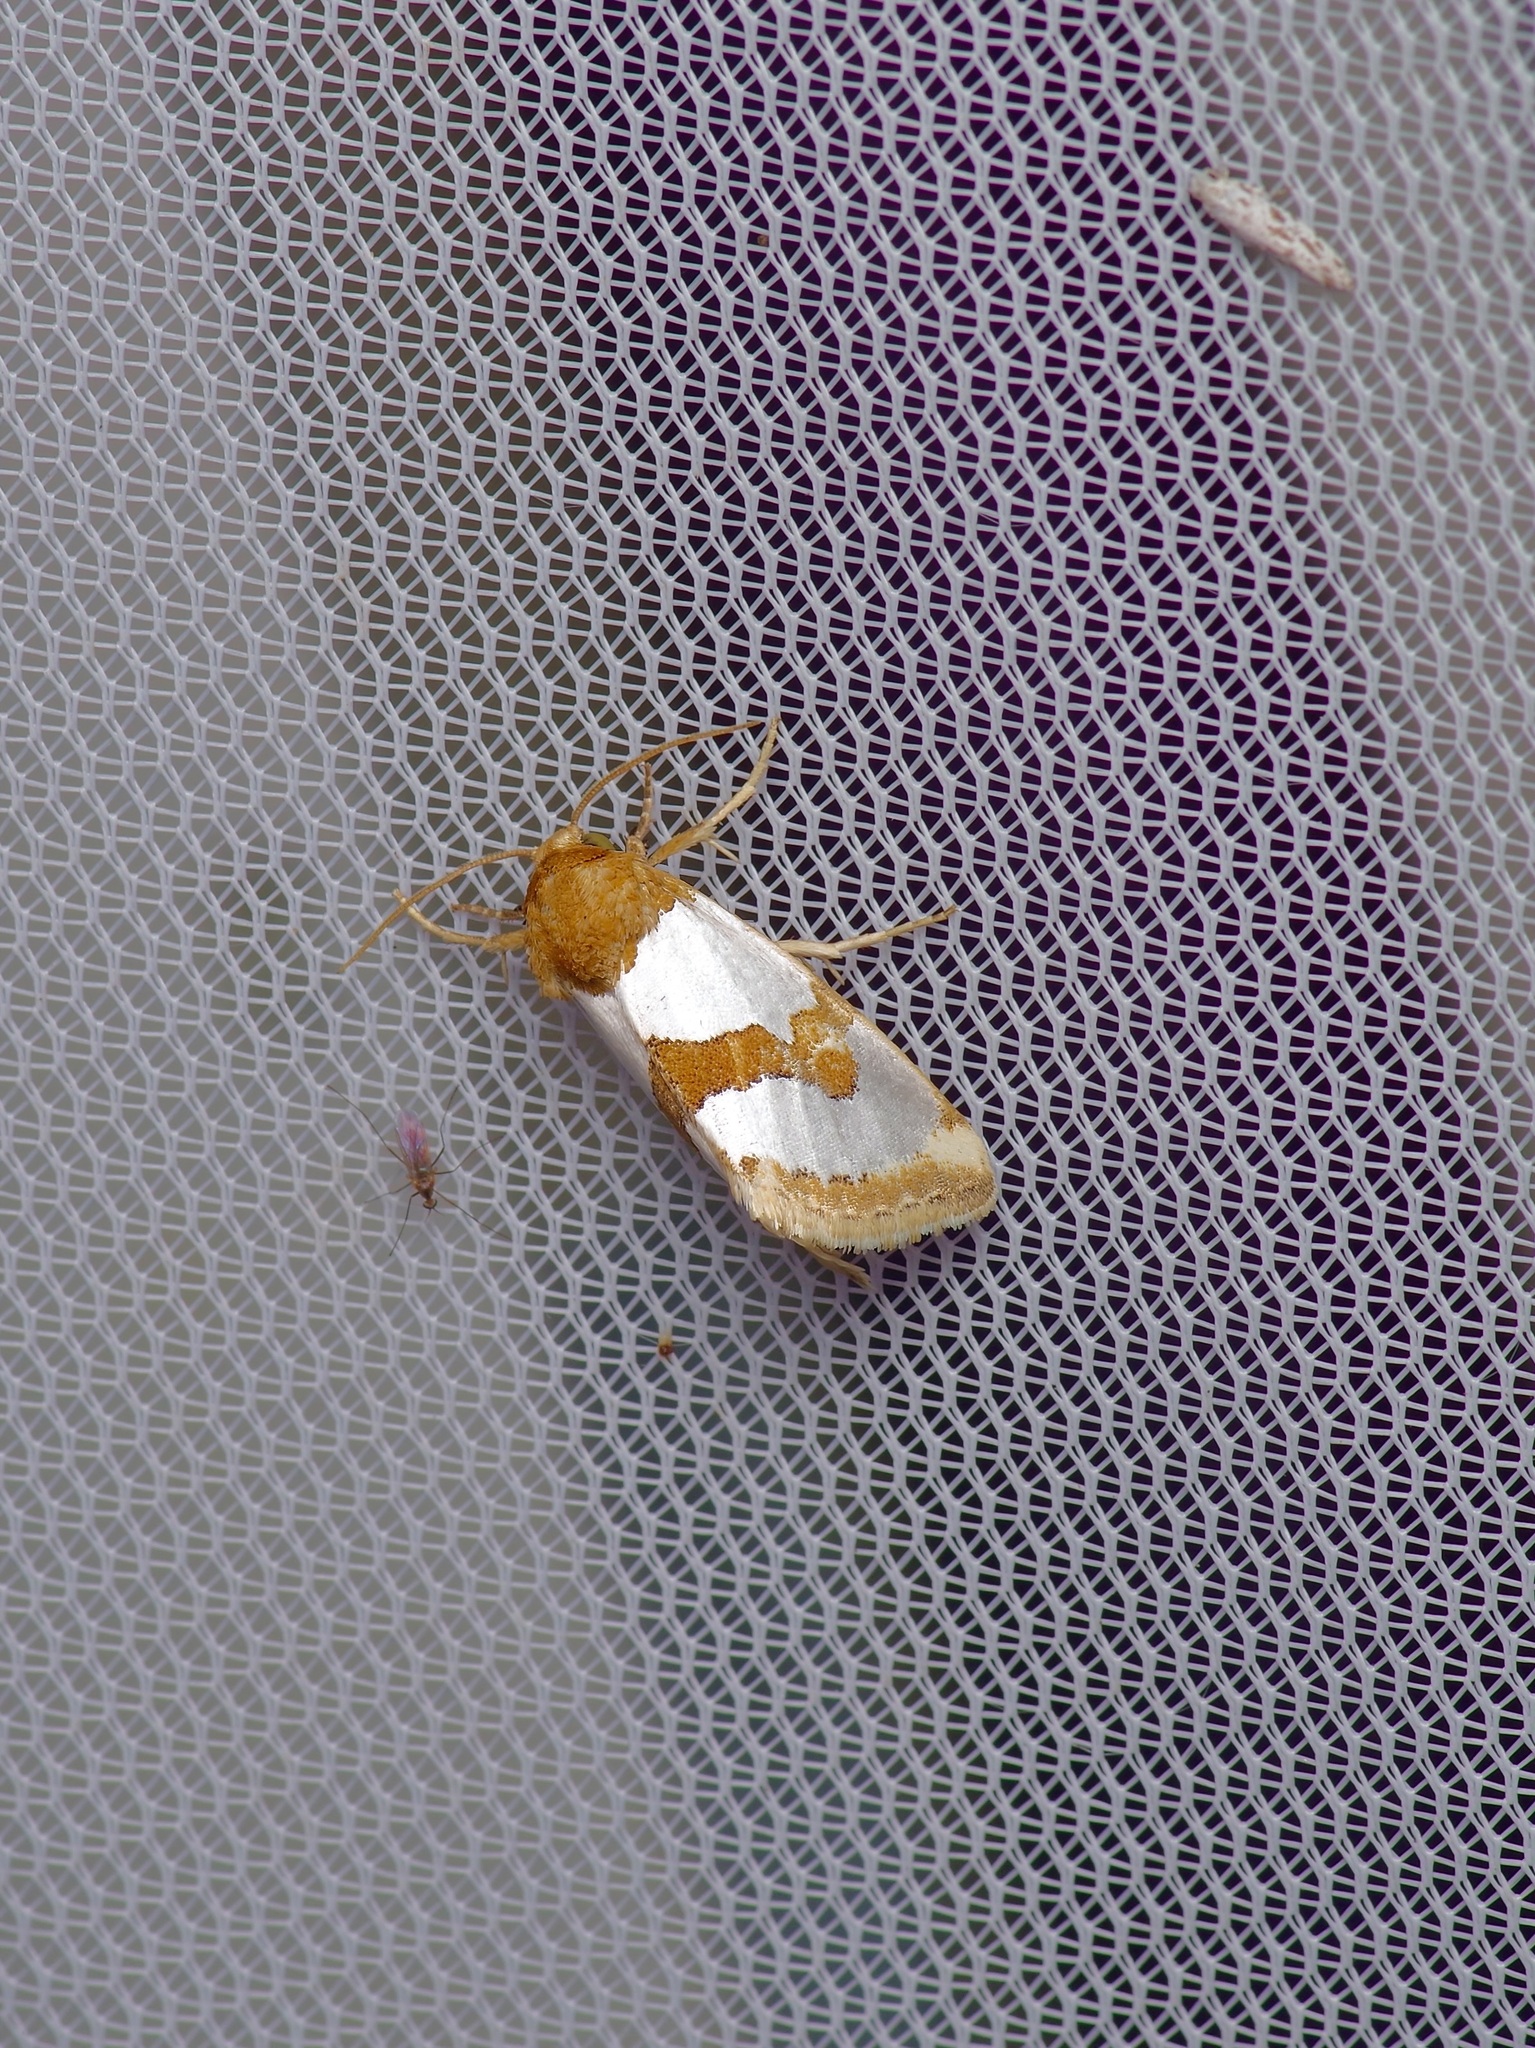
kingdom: Animalia
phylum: Arthropoda
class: Insecta
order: Lepidoptera
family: Noctuidae
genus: Schinia
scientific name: Schinia chrysellus
